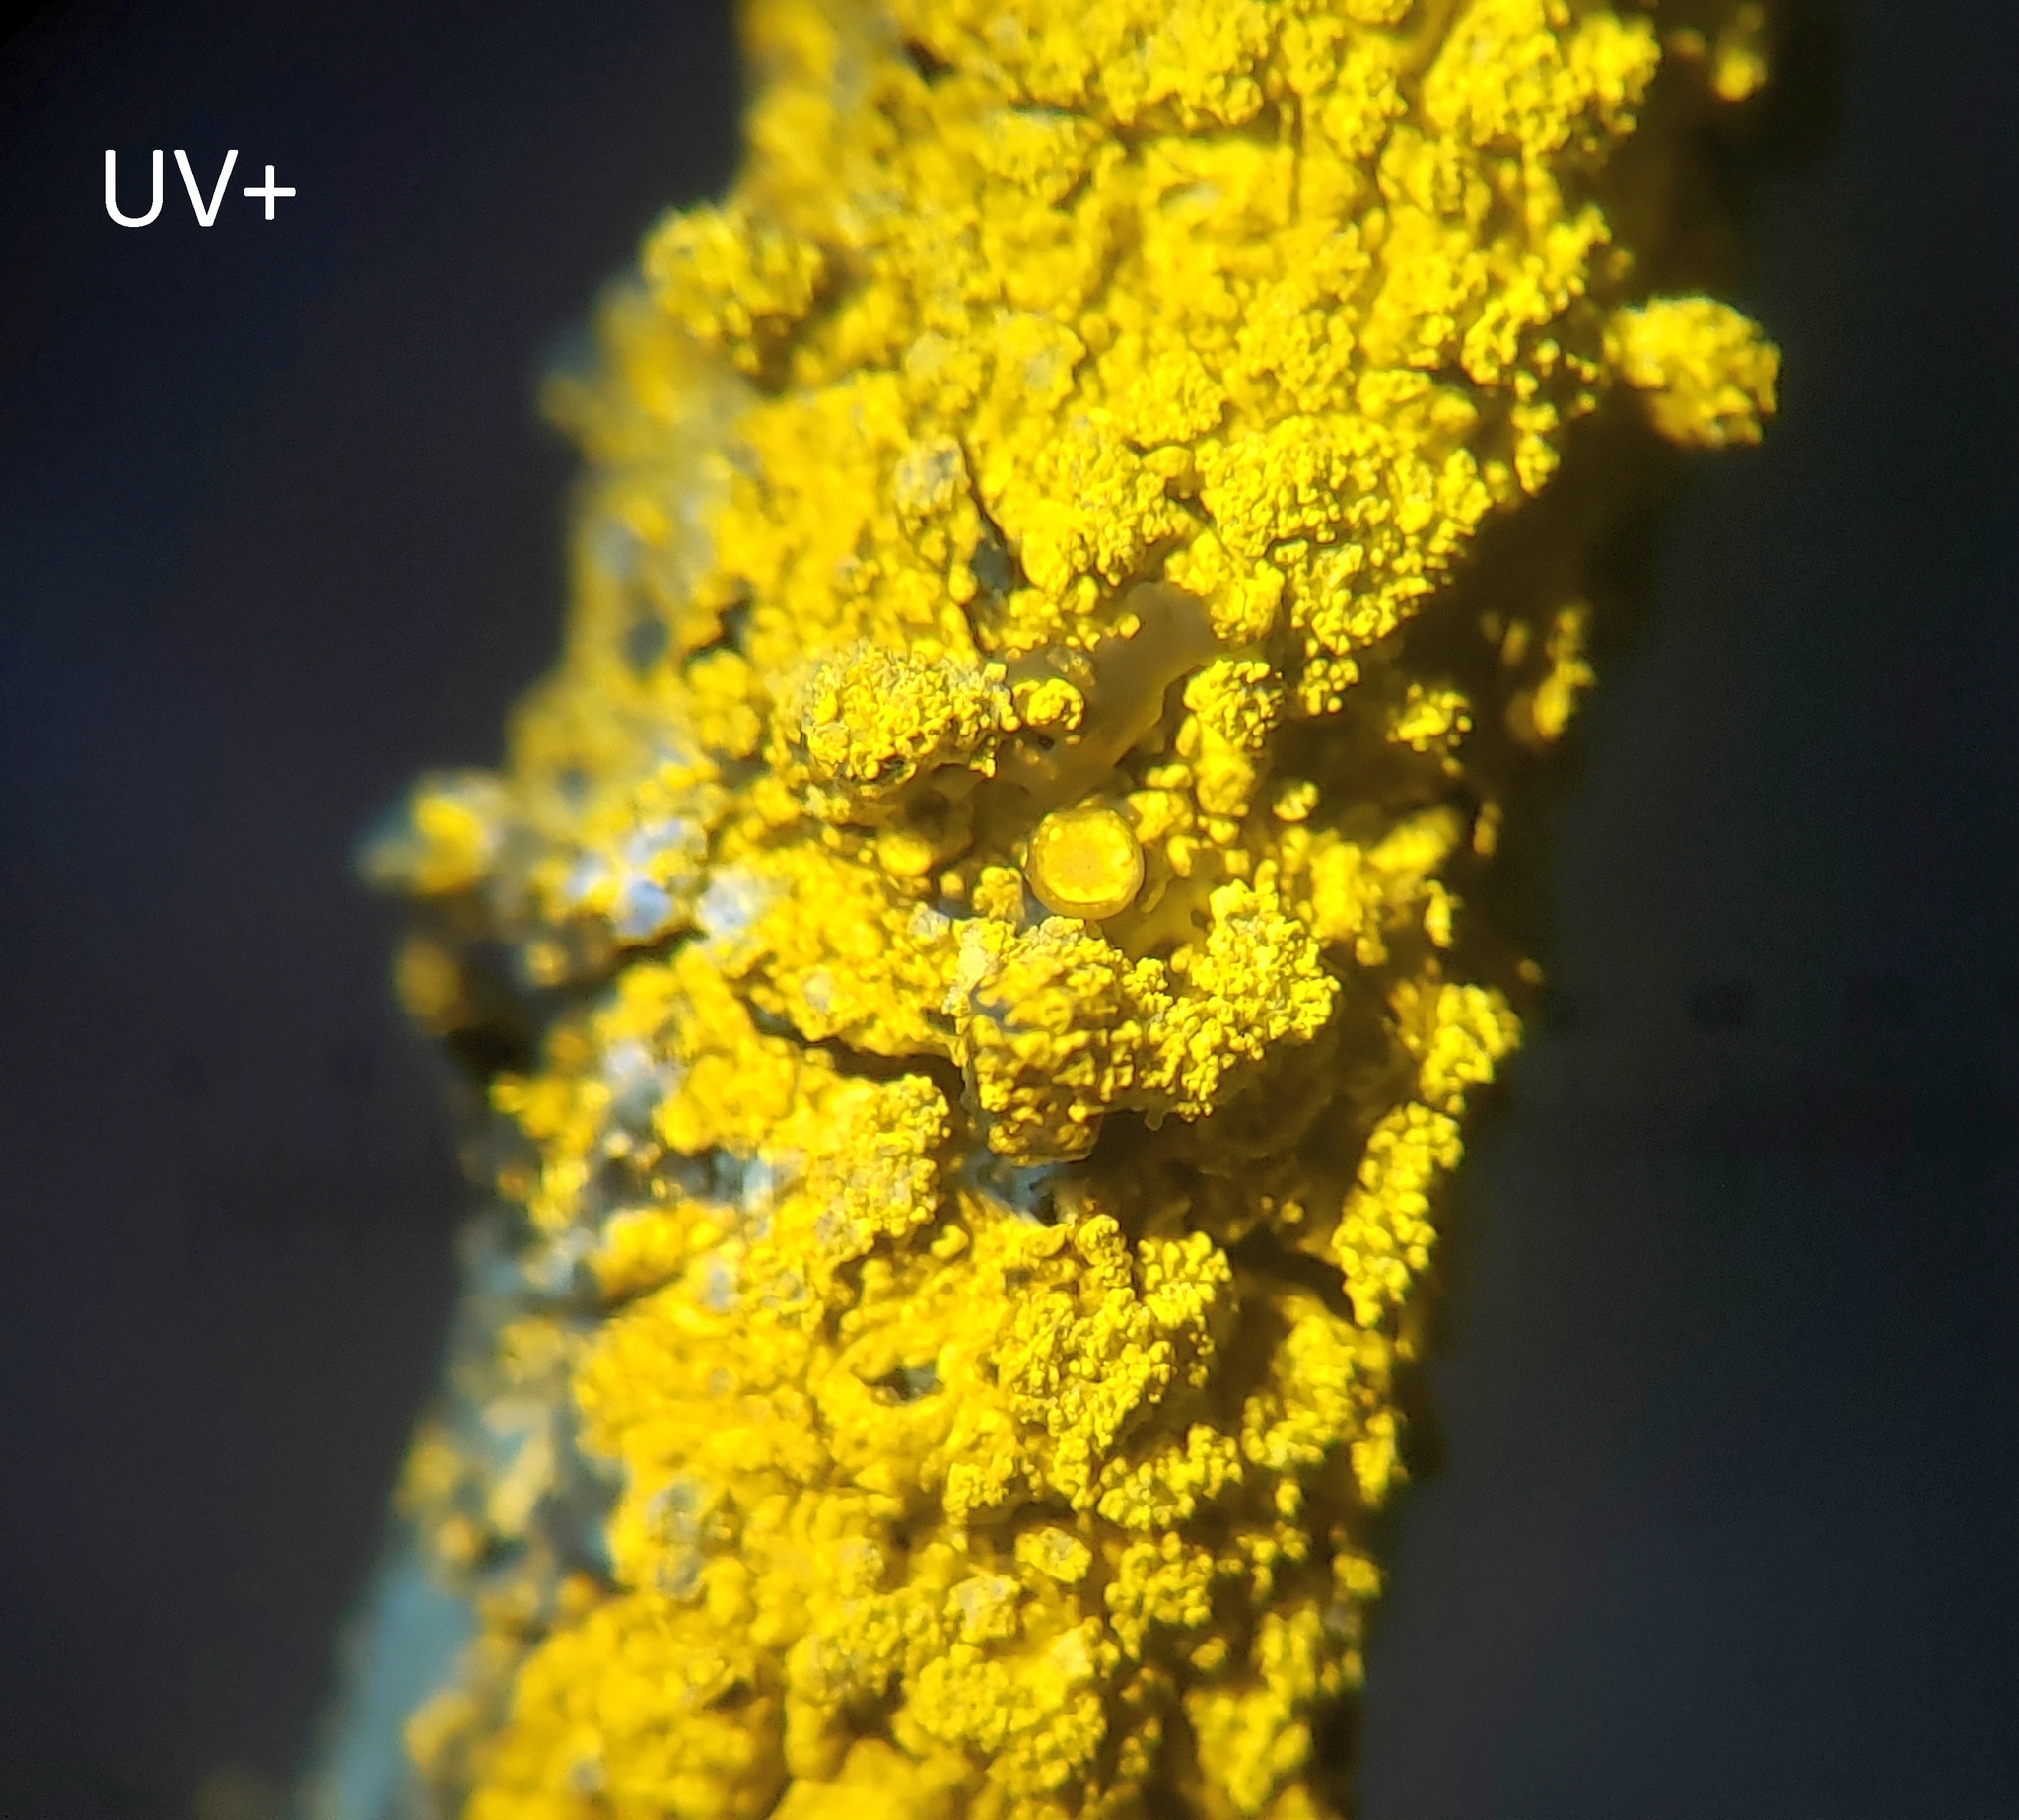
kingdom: Fungi
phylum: Ascomycota
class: Lecanoromycetes
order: Pertusariales
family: Ochrolechiaceae
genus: Ochrolechia
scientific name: Ochrolechia arborea
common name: Tree saucer lichen
